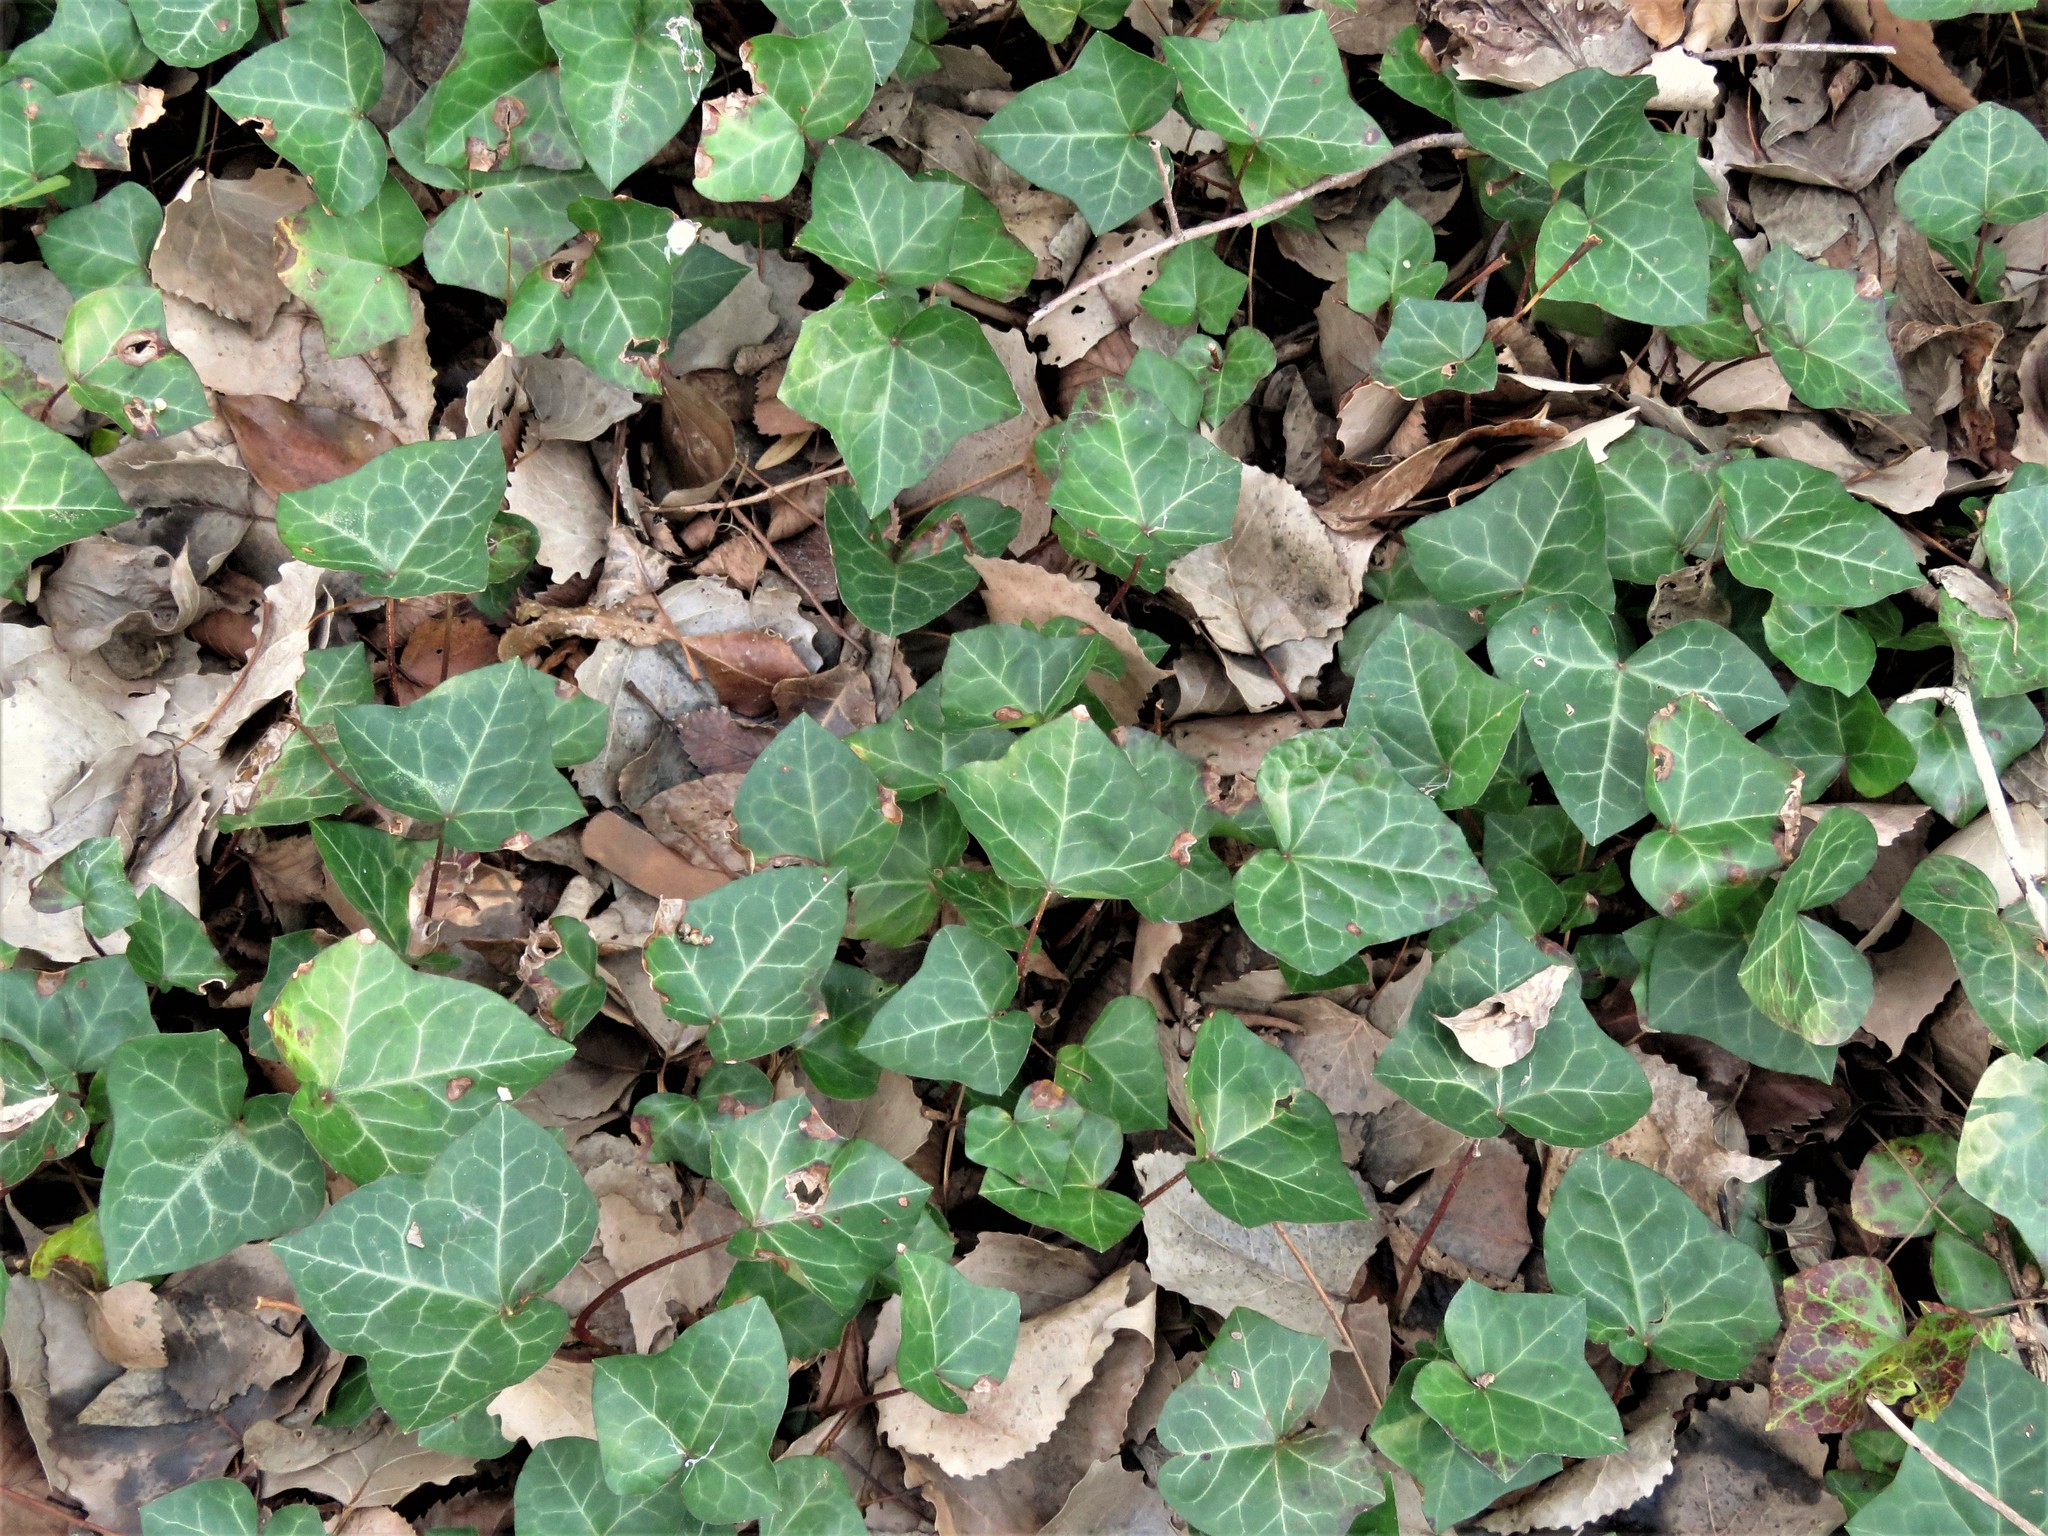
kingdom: Plantae
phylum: Tracheophyta
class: Magnoliopsida
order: Apiales
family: Araliaceae
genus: Hedera
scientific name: Hedera helix
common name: Ivy
